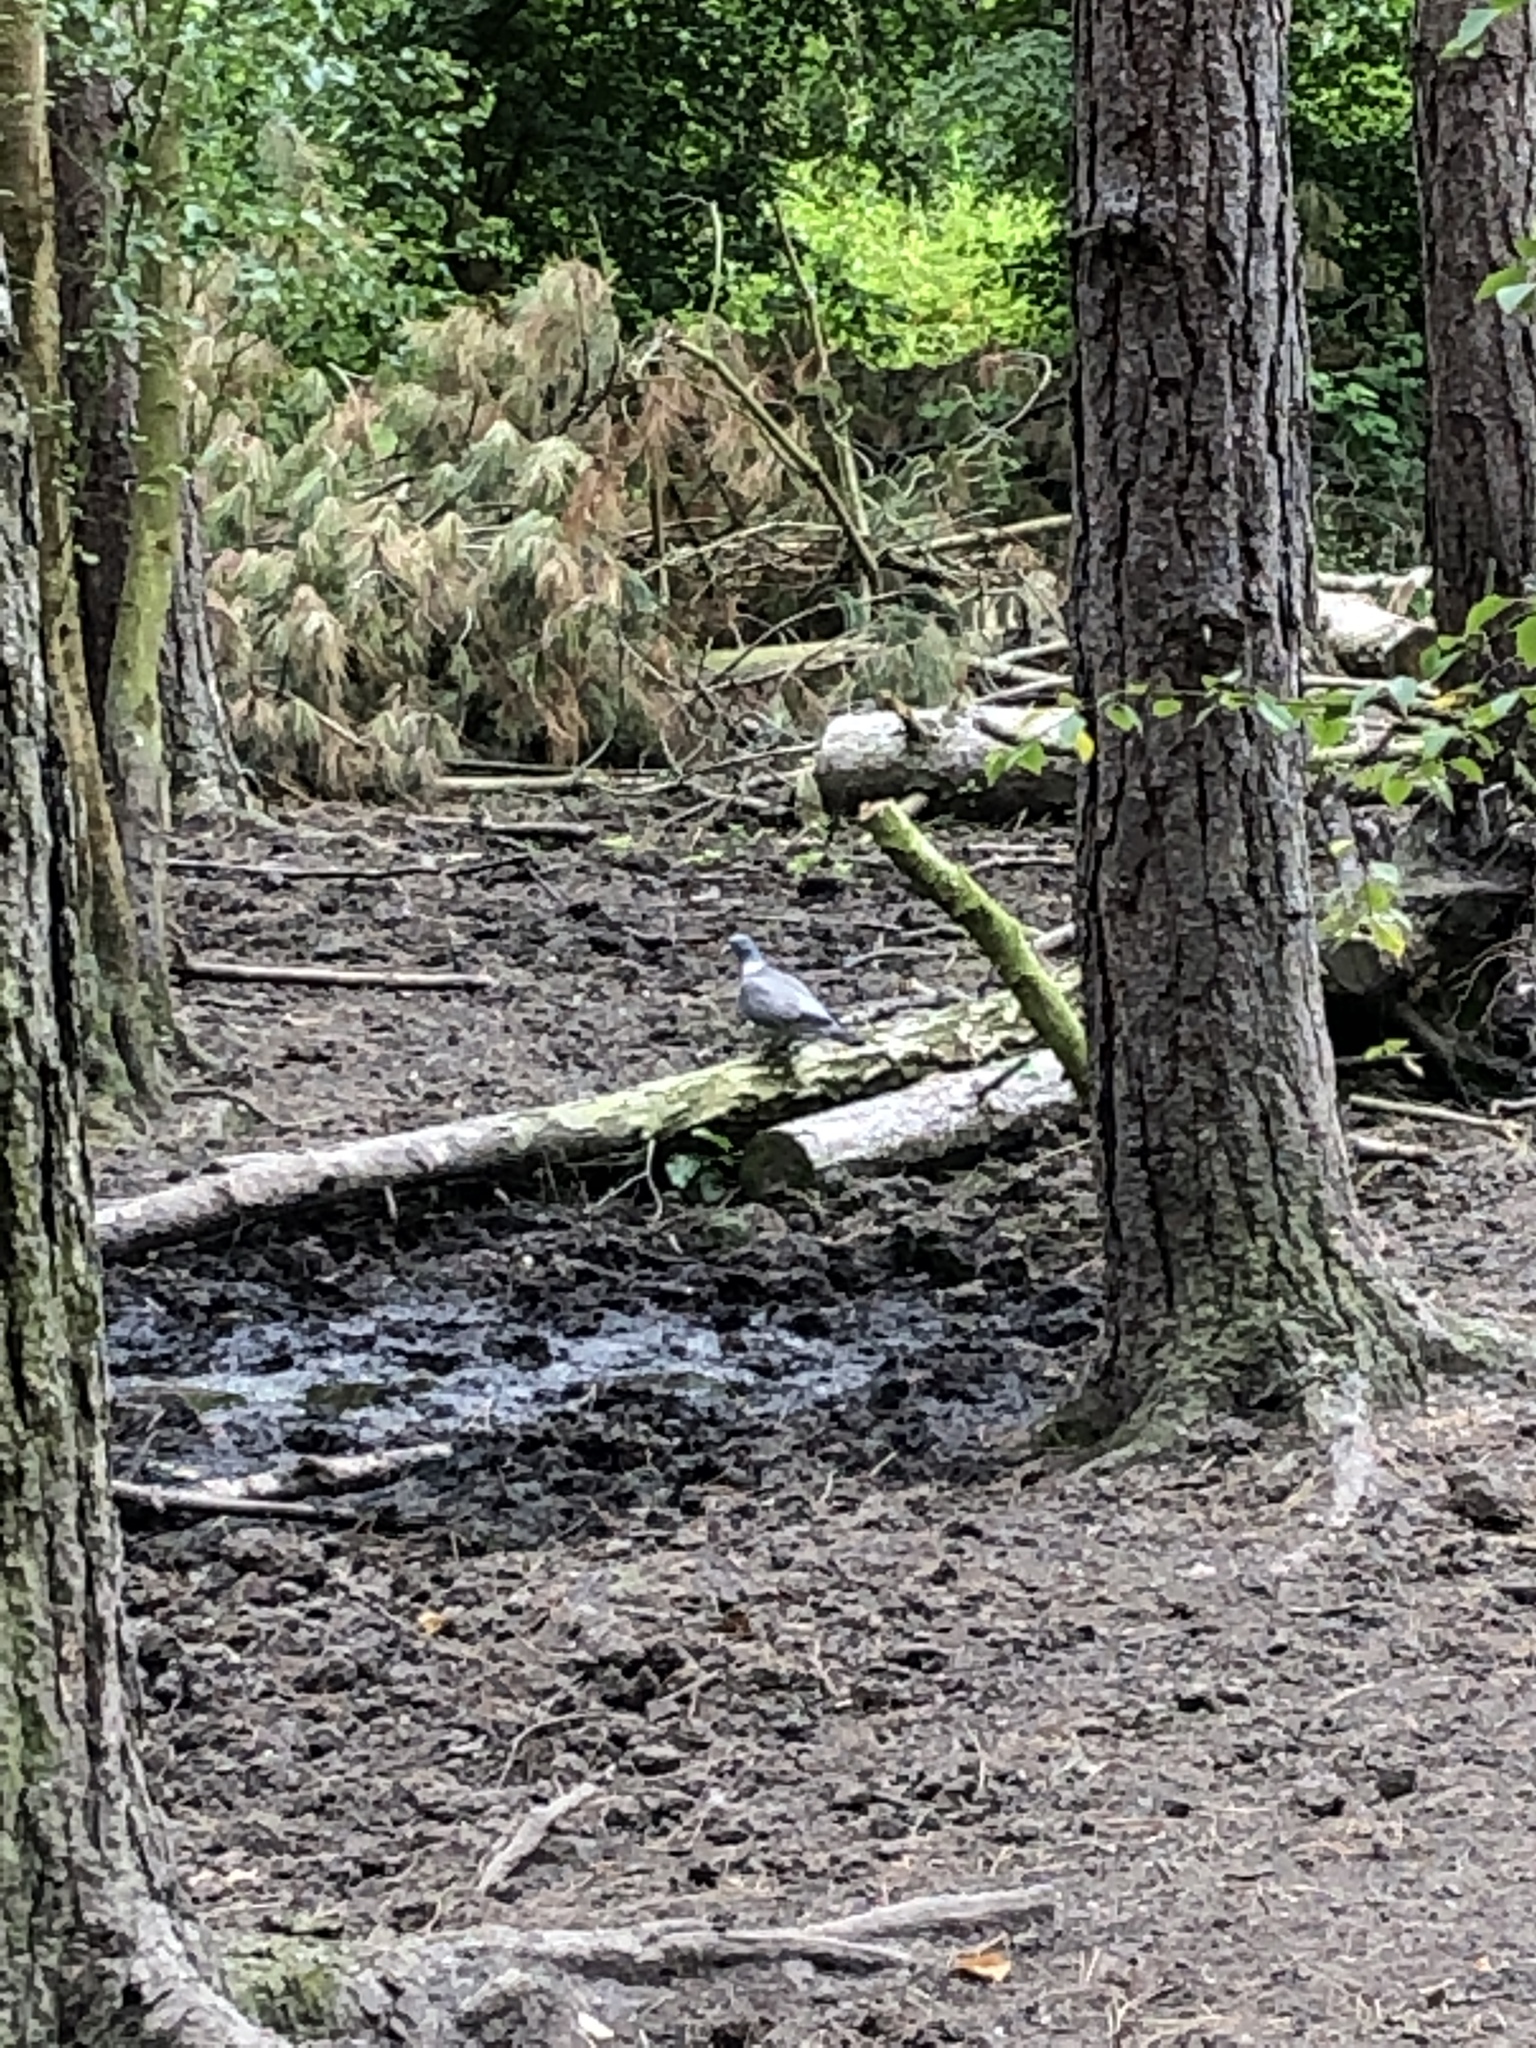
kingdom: Animalia
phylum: Chordata
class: Aves
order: Columbiformes
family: Columbidae
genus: Columba
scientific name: Columba palumbus
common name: Common wood pigeon
